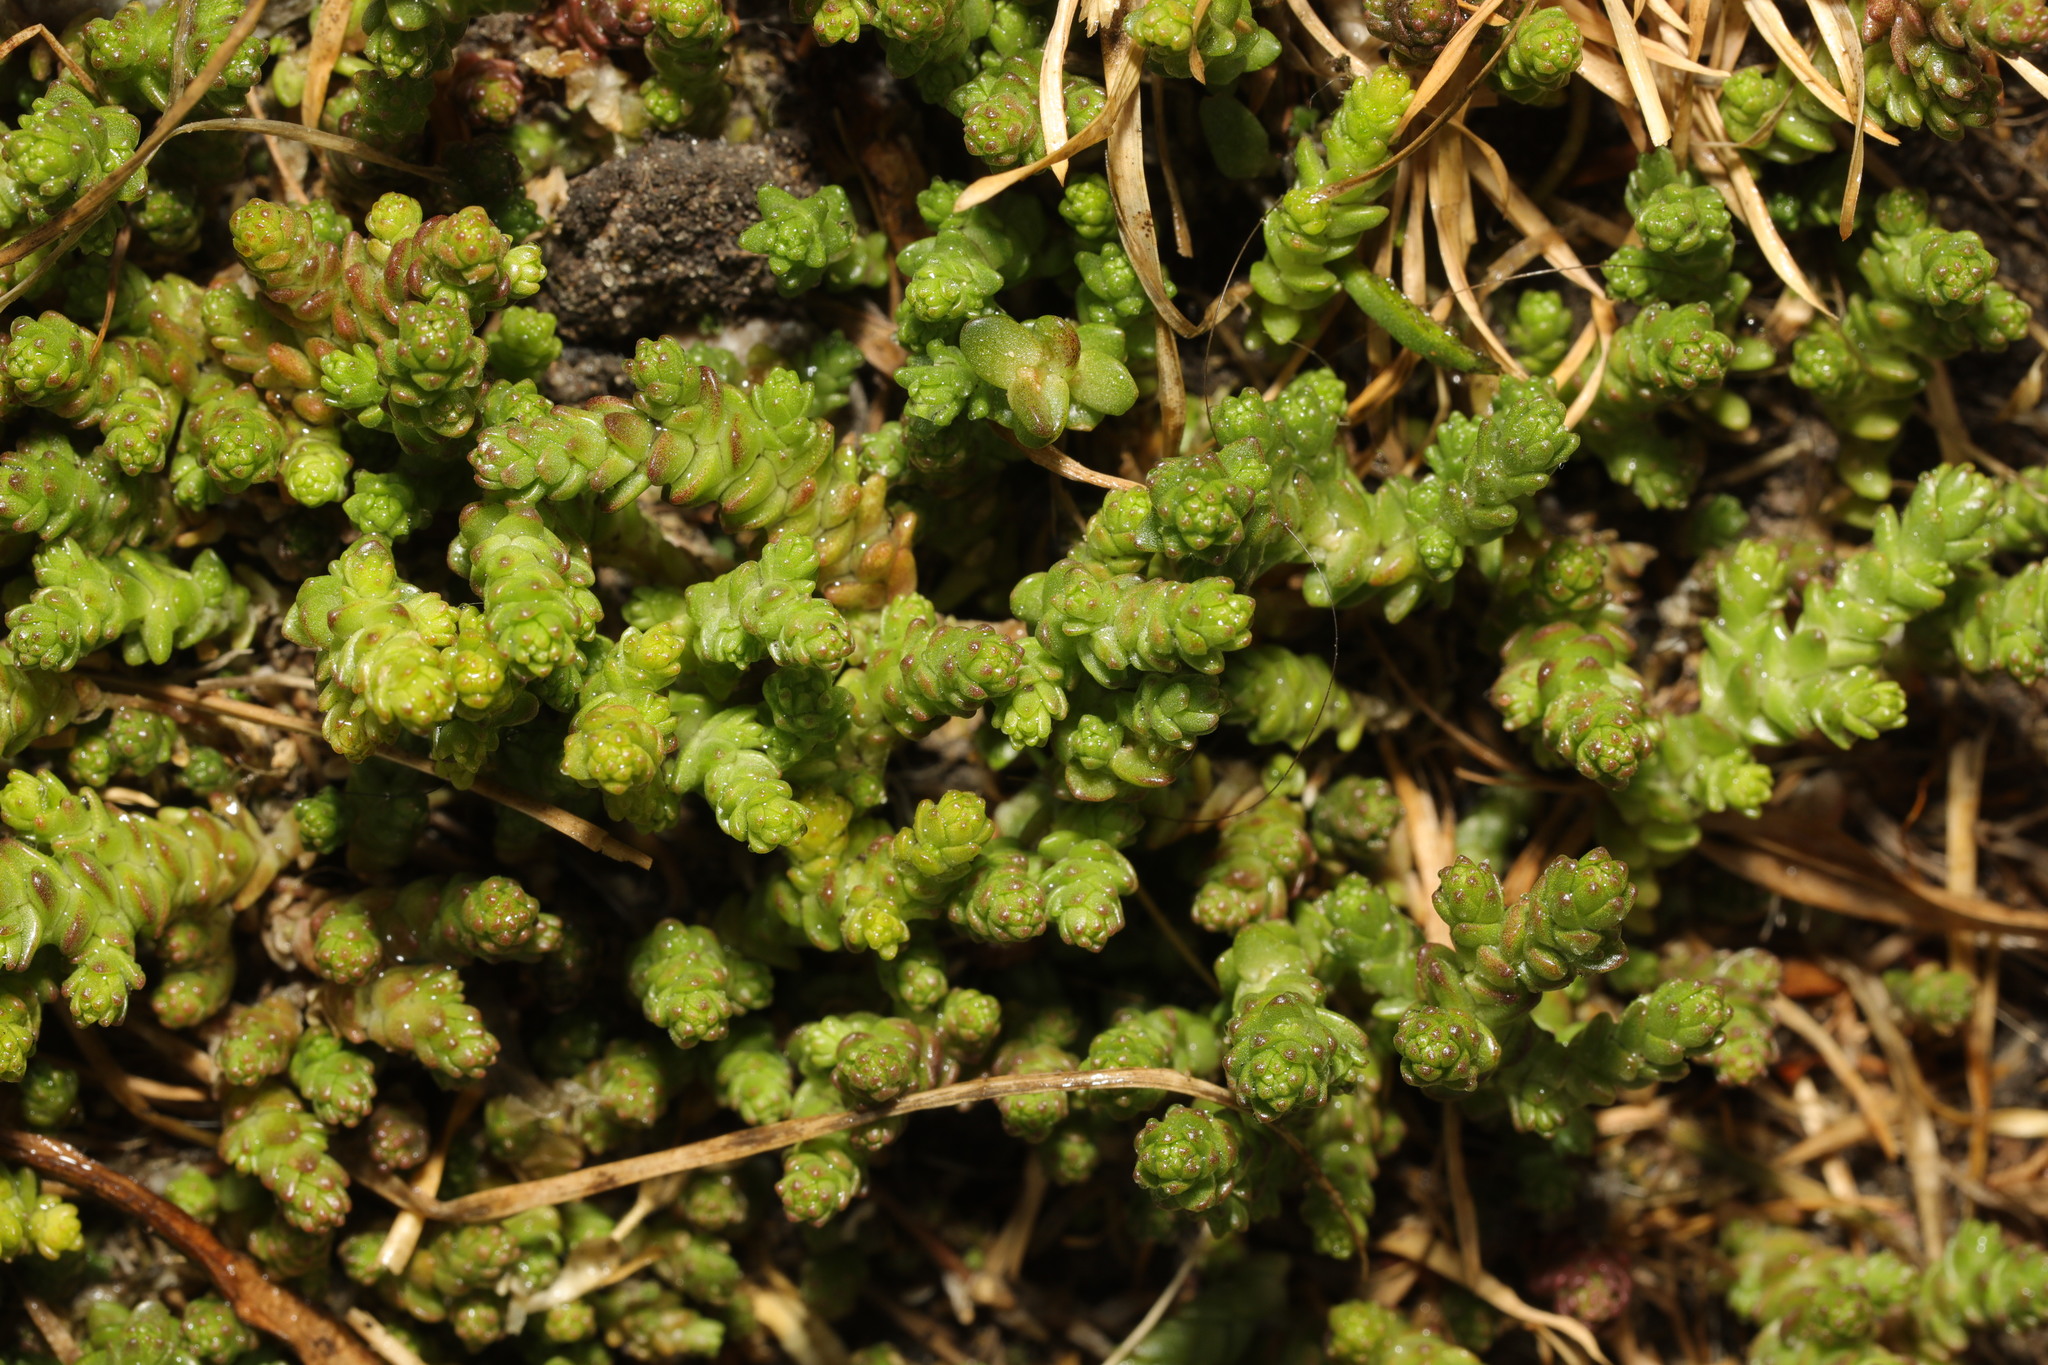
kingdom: Plantae
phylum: Tracheophyta
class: Magnoliopsida
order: Saxifragales
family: Crassulaceae
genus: Sedum
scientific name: Sedum acre
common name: Biting stonecrop
